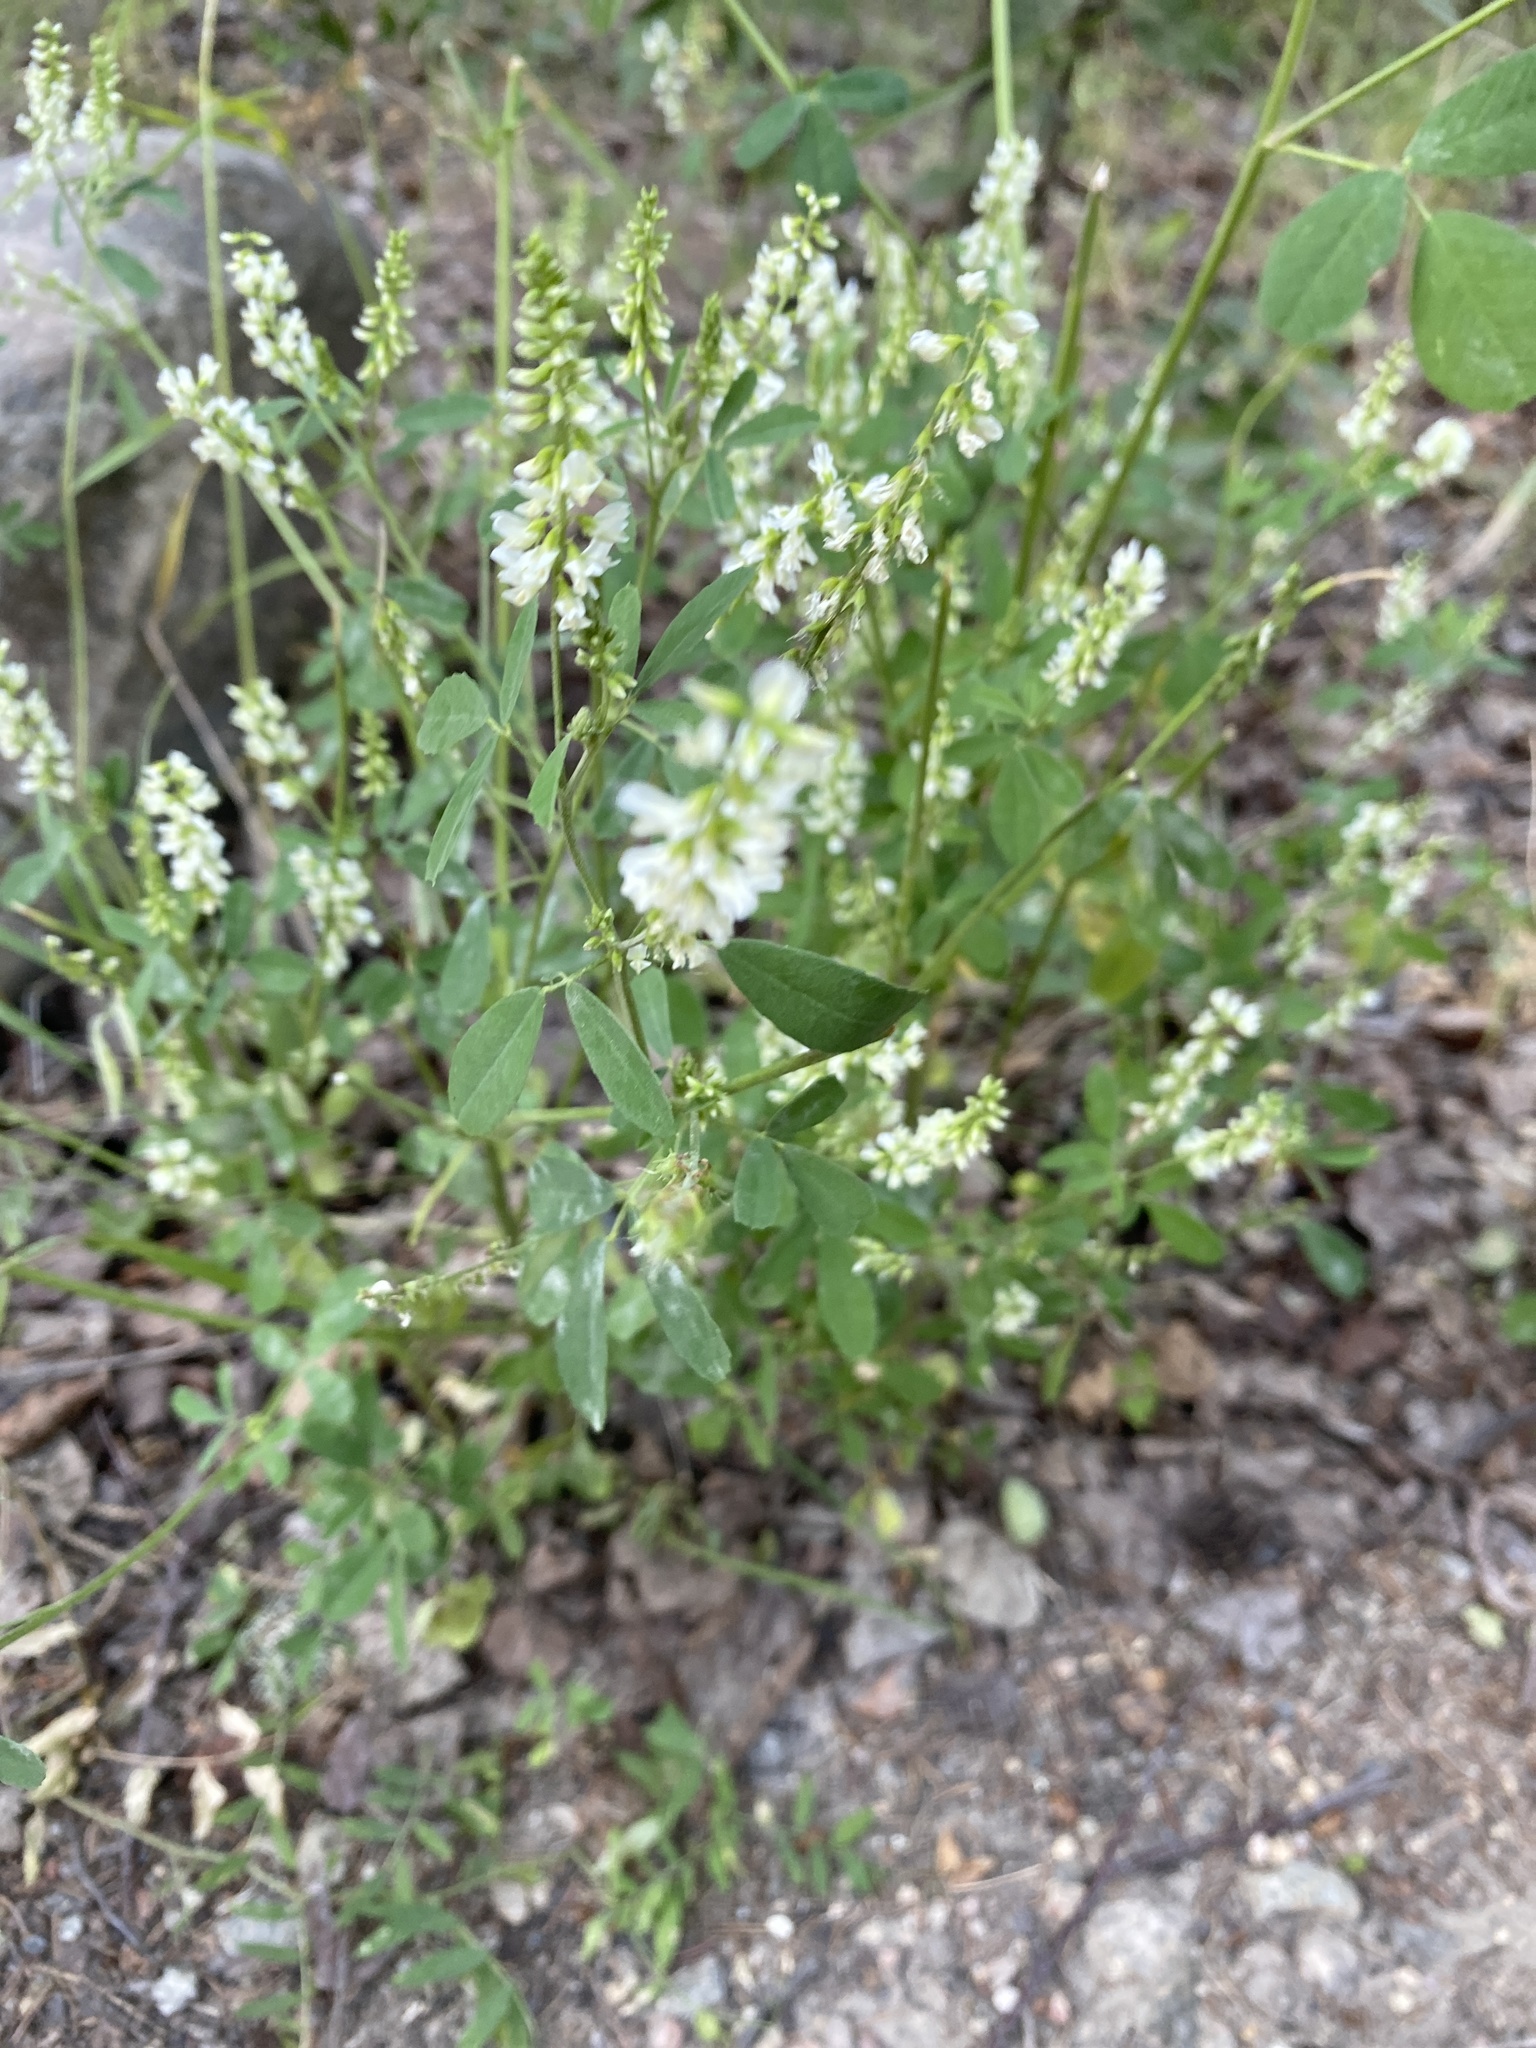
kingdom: Plantae
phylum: Tracheophyta
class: Magnoliopsida
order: Fabales
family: Fabaceae
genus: Melilotus
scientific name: Melilotus albus
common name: White melilot
